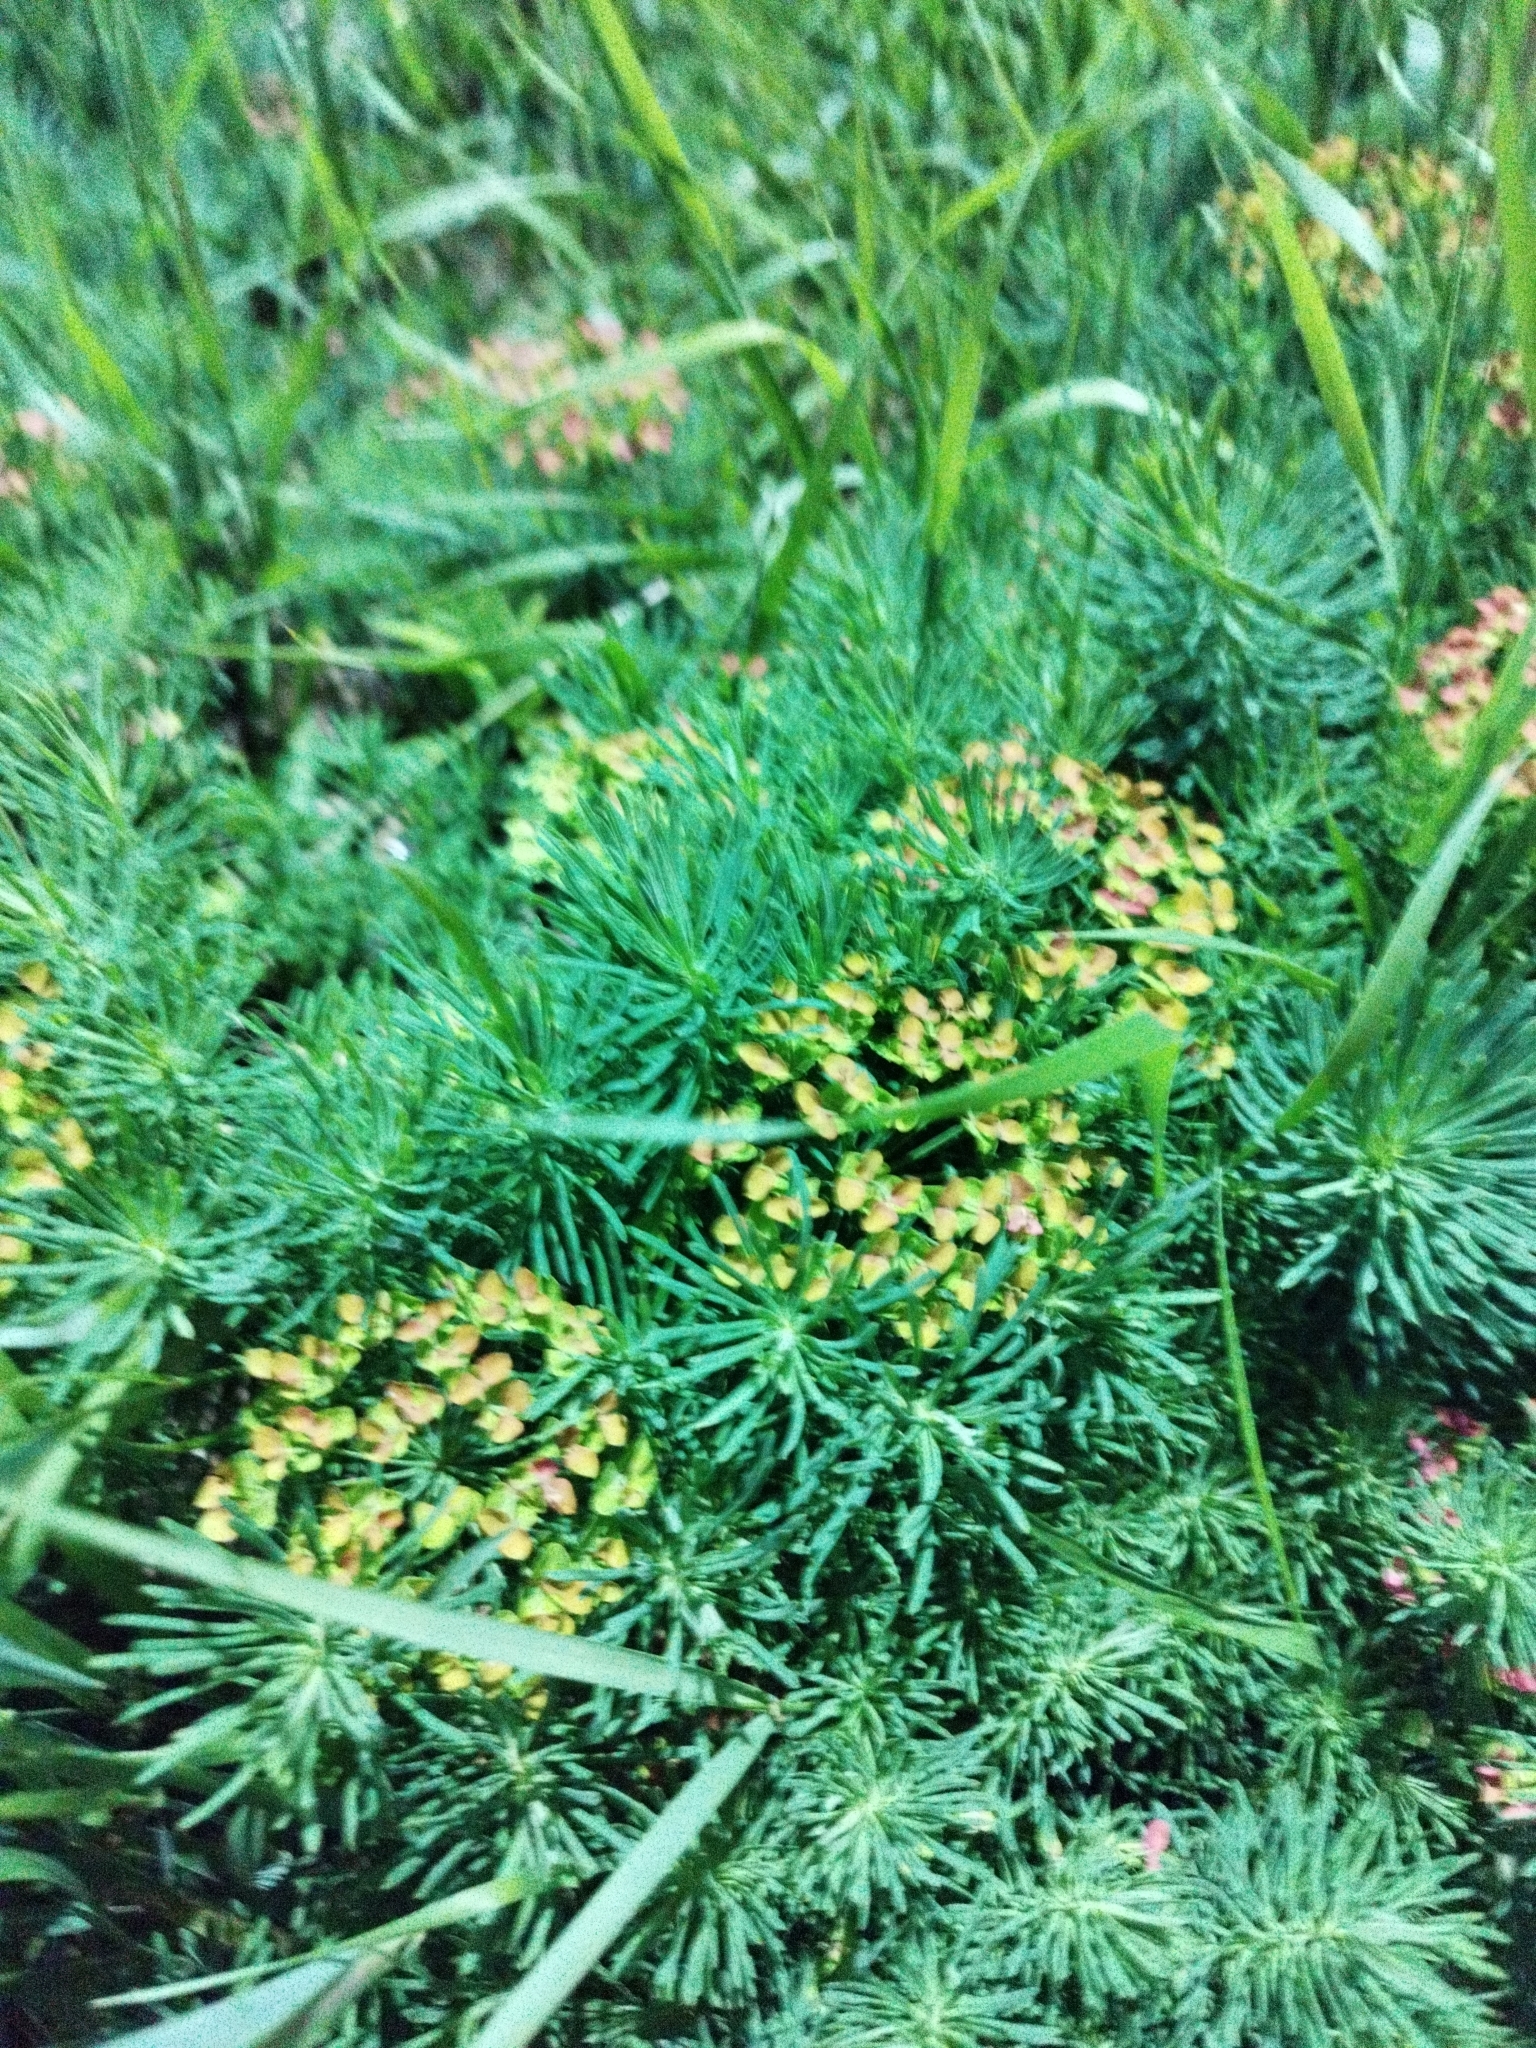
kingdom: Plantae
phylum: Tracheophyta
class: Magnoliopsida
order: Malpighiales
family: Euphorbiaceae
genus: Euphorbia
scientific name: Euphorbia cyparissias
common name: Cypress spurge
